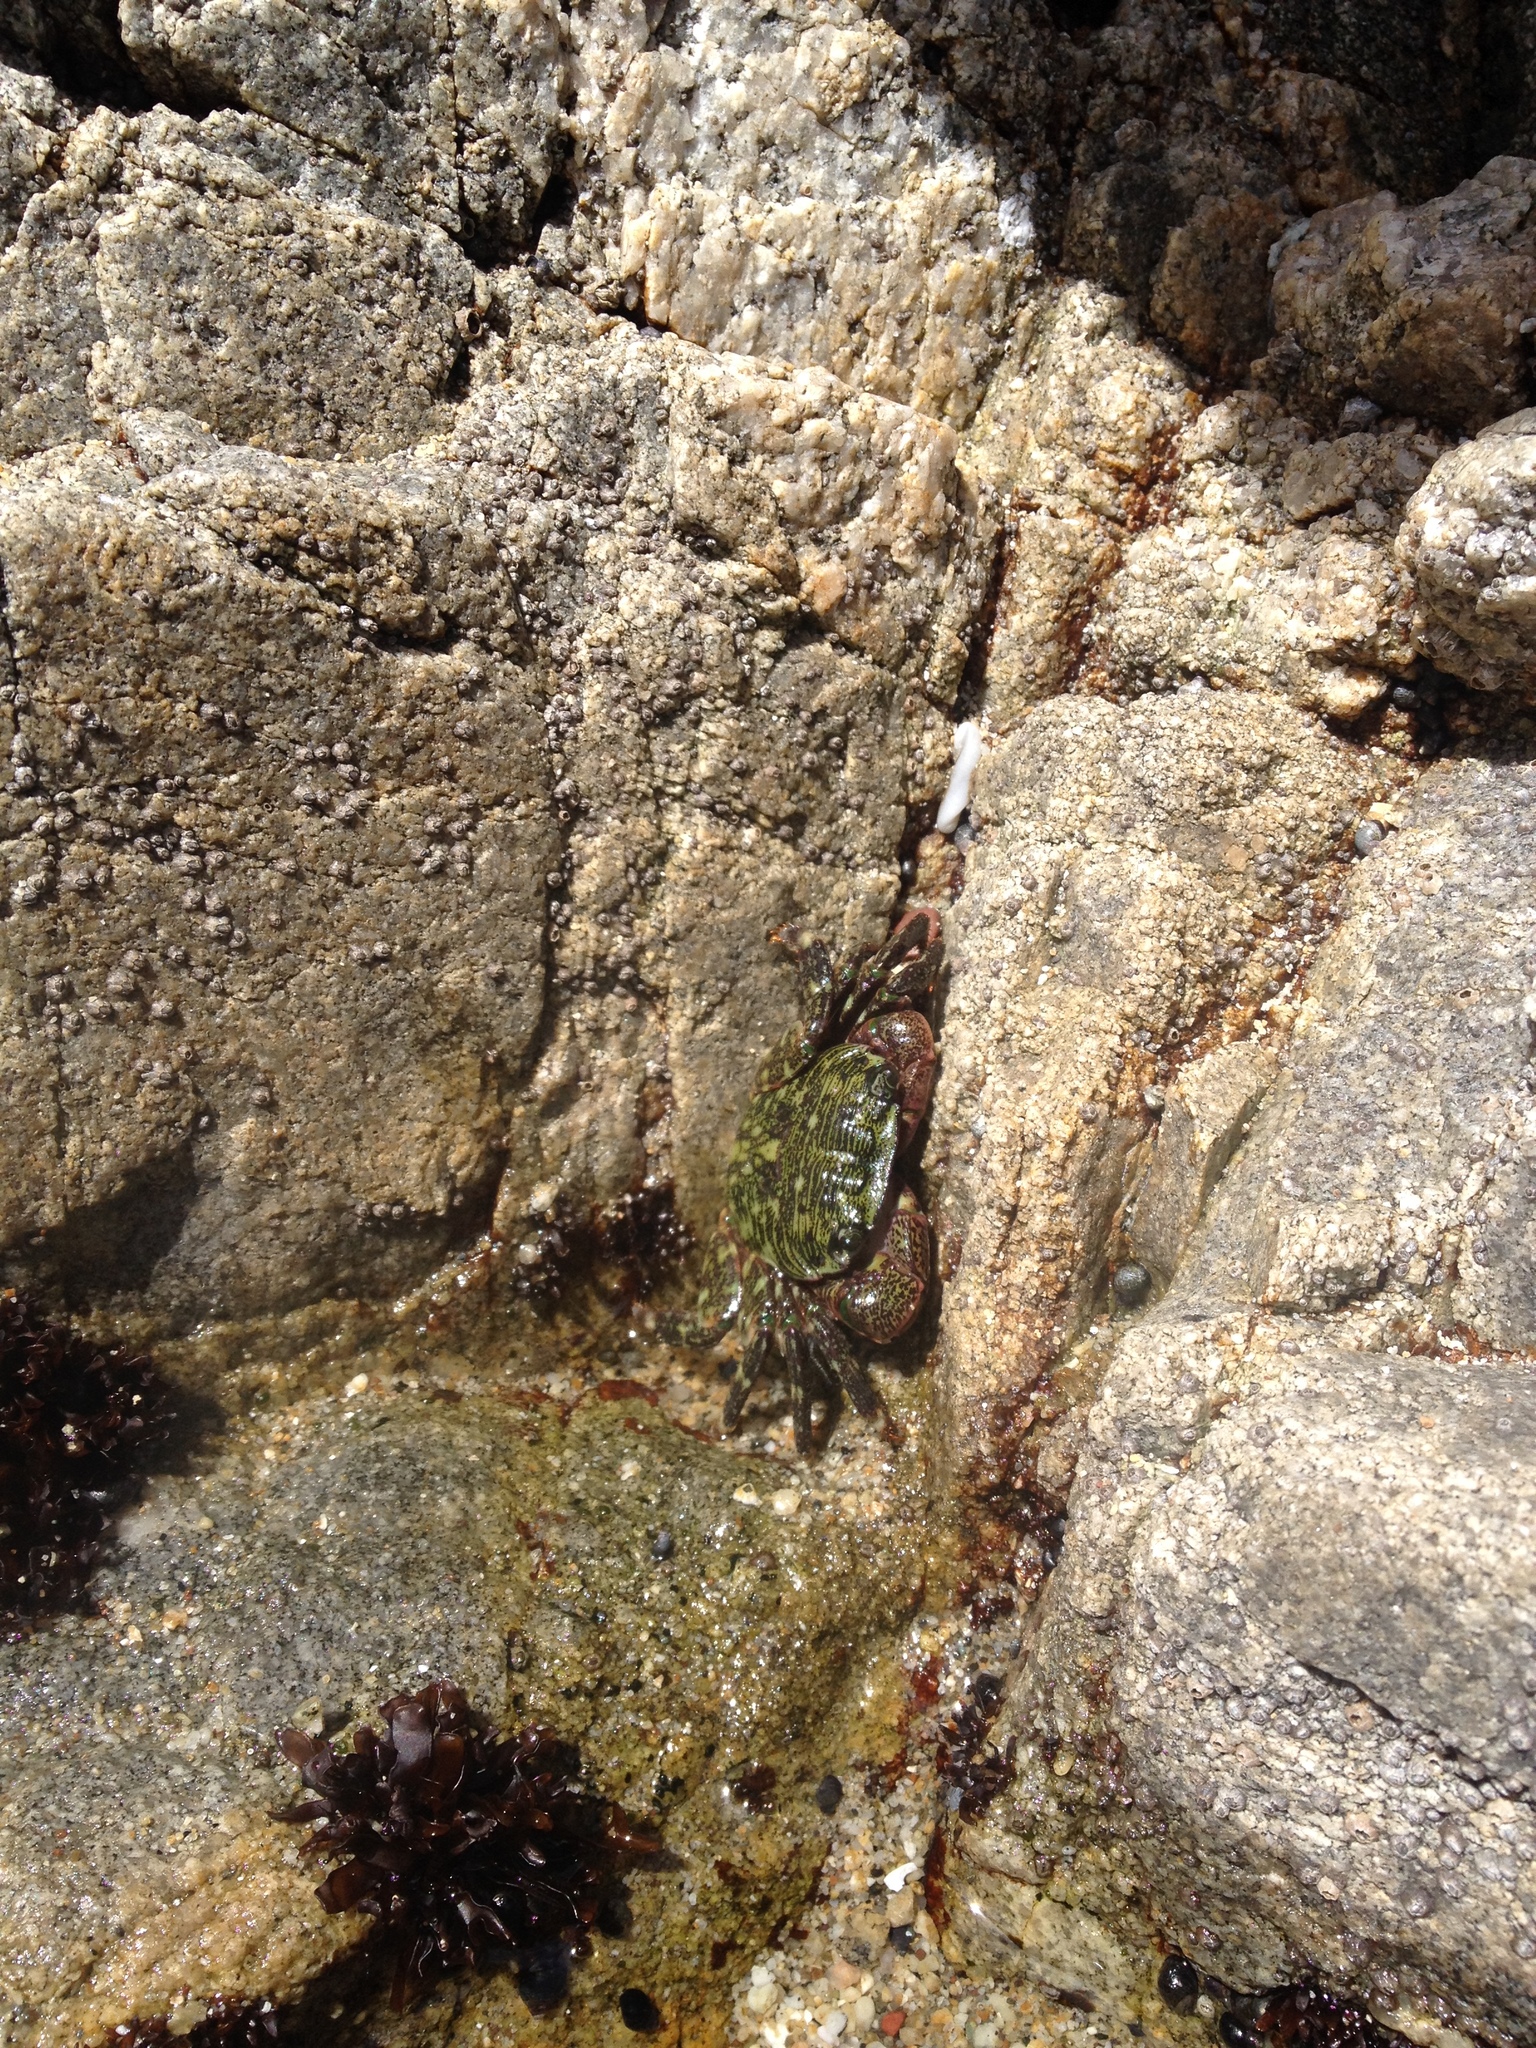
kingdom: Animalia
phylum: Arthropoda
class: Malacostraca
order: Decapoda
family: Grapsidae
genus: Pachygrapsus
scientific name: Pachygrapsus crassipes
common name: Striped shore crab
